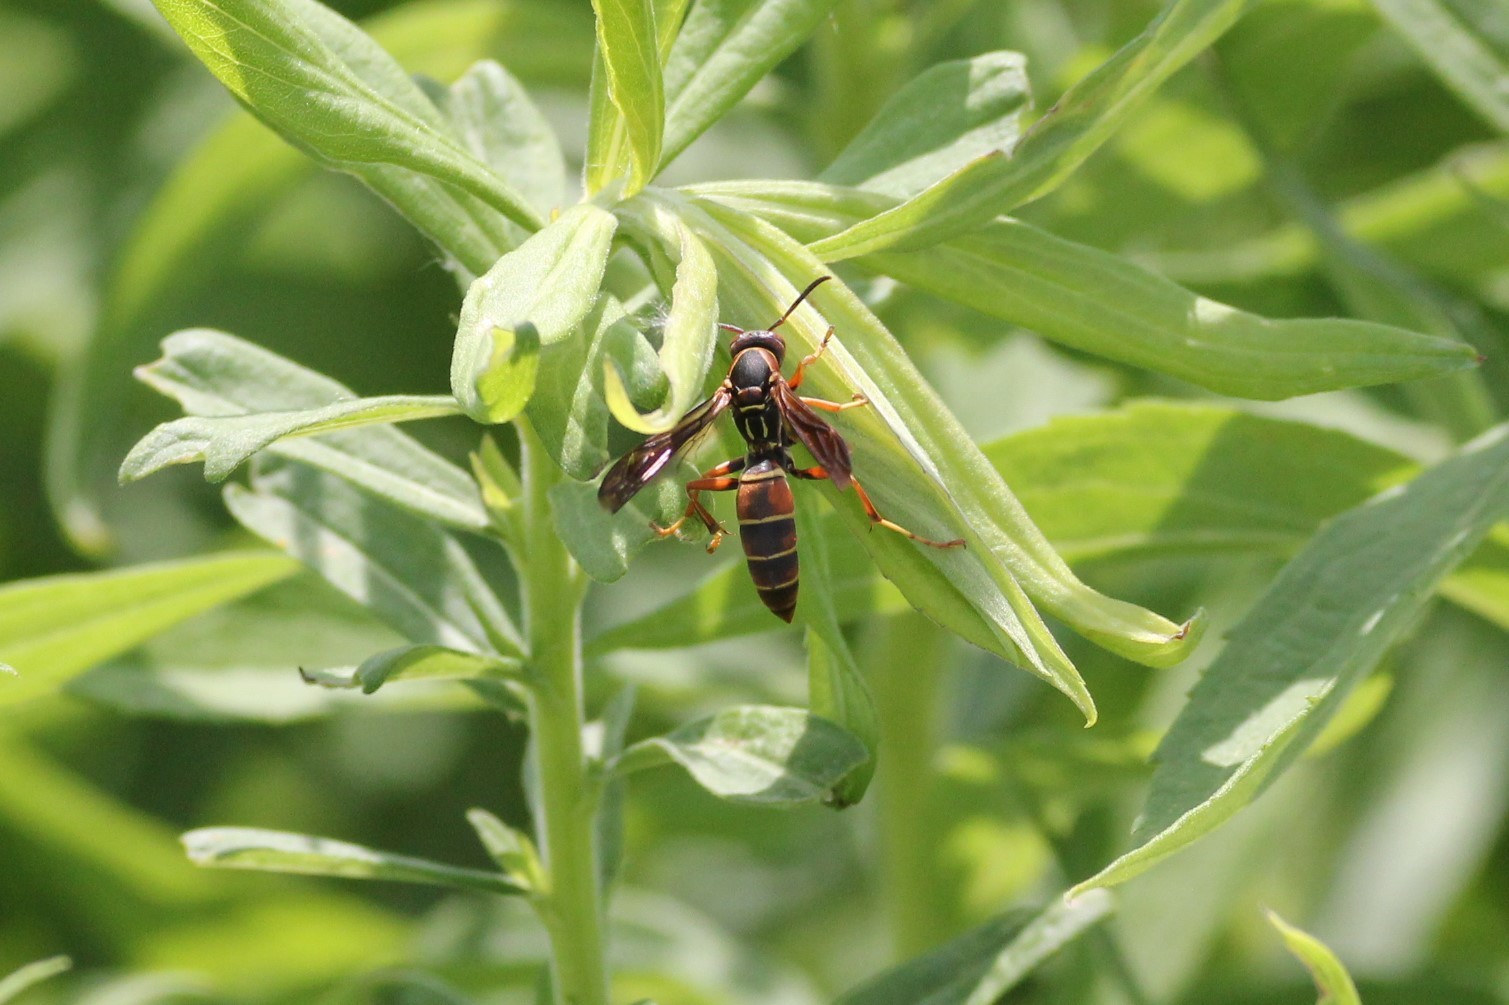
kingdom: Animalia
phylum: Arthropoda
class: Insecta
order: Hymenoptera
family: Eumenidae
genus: Polistes
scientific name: Polistes fuscatus
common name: Dark paper wasp
